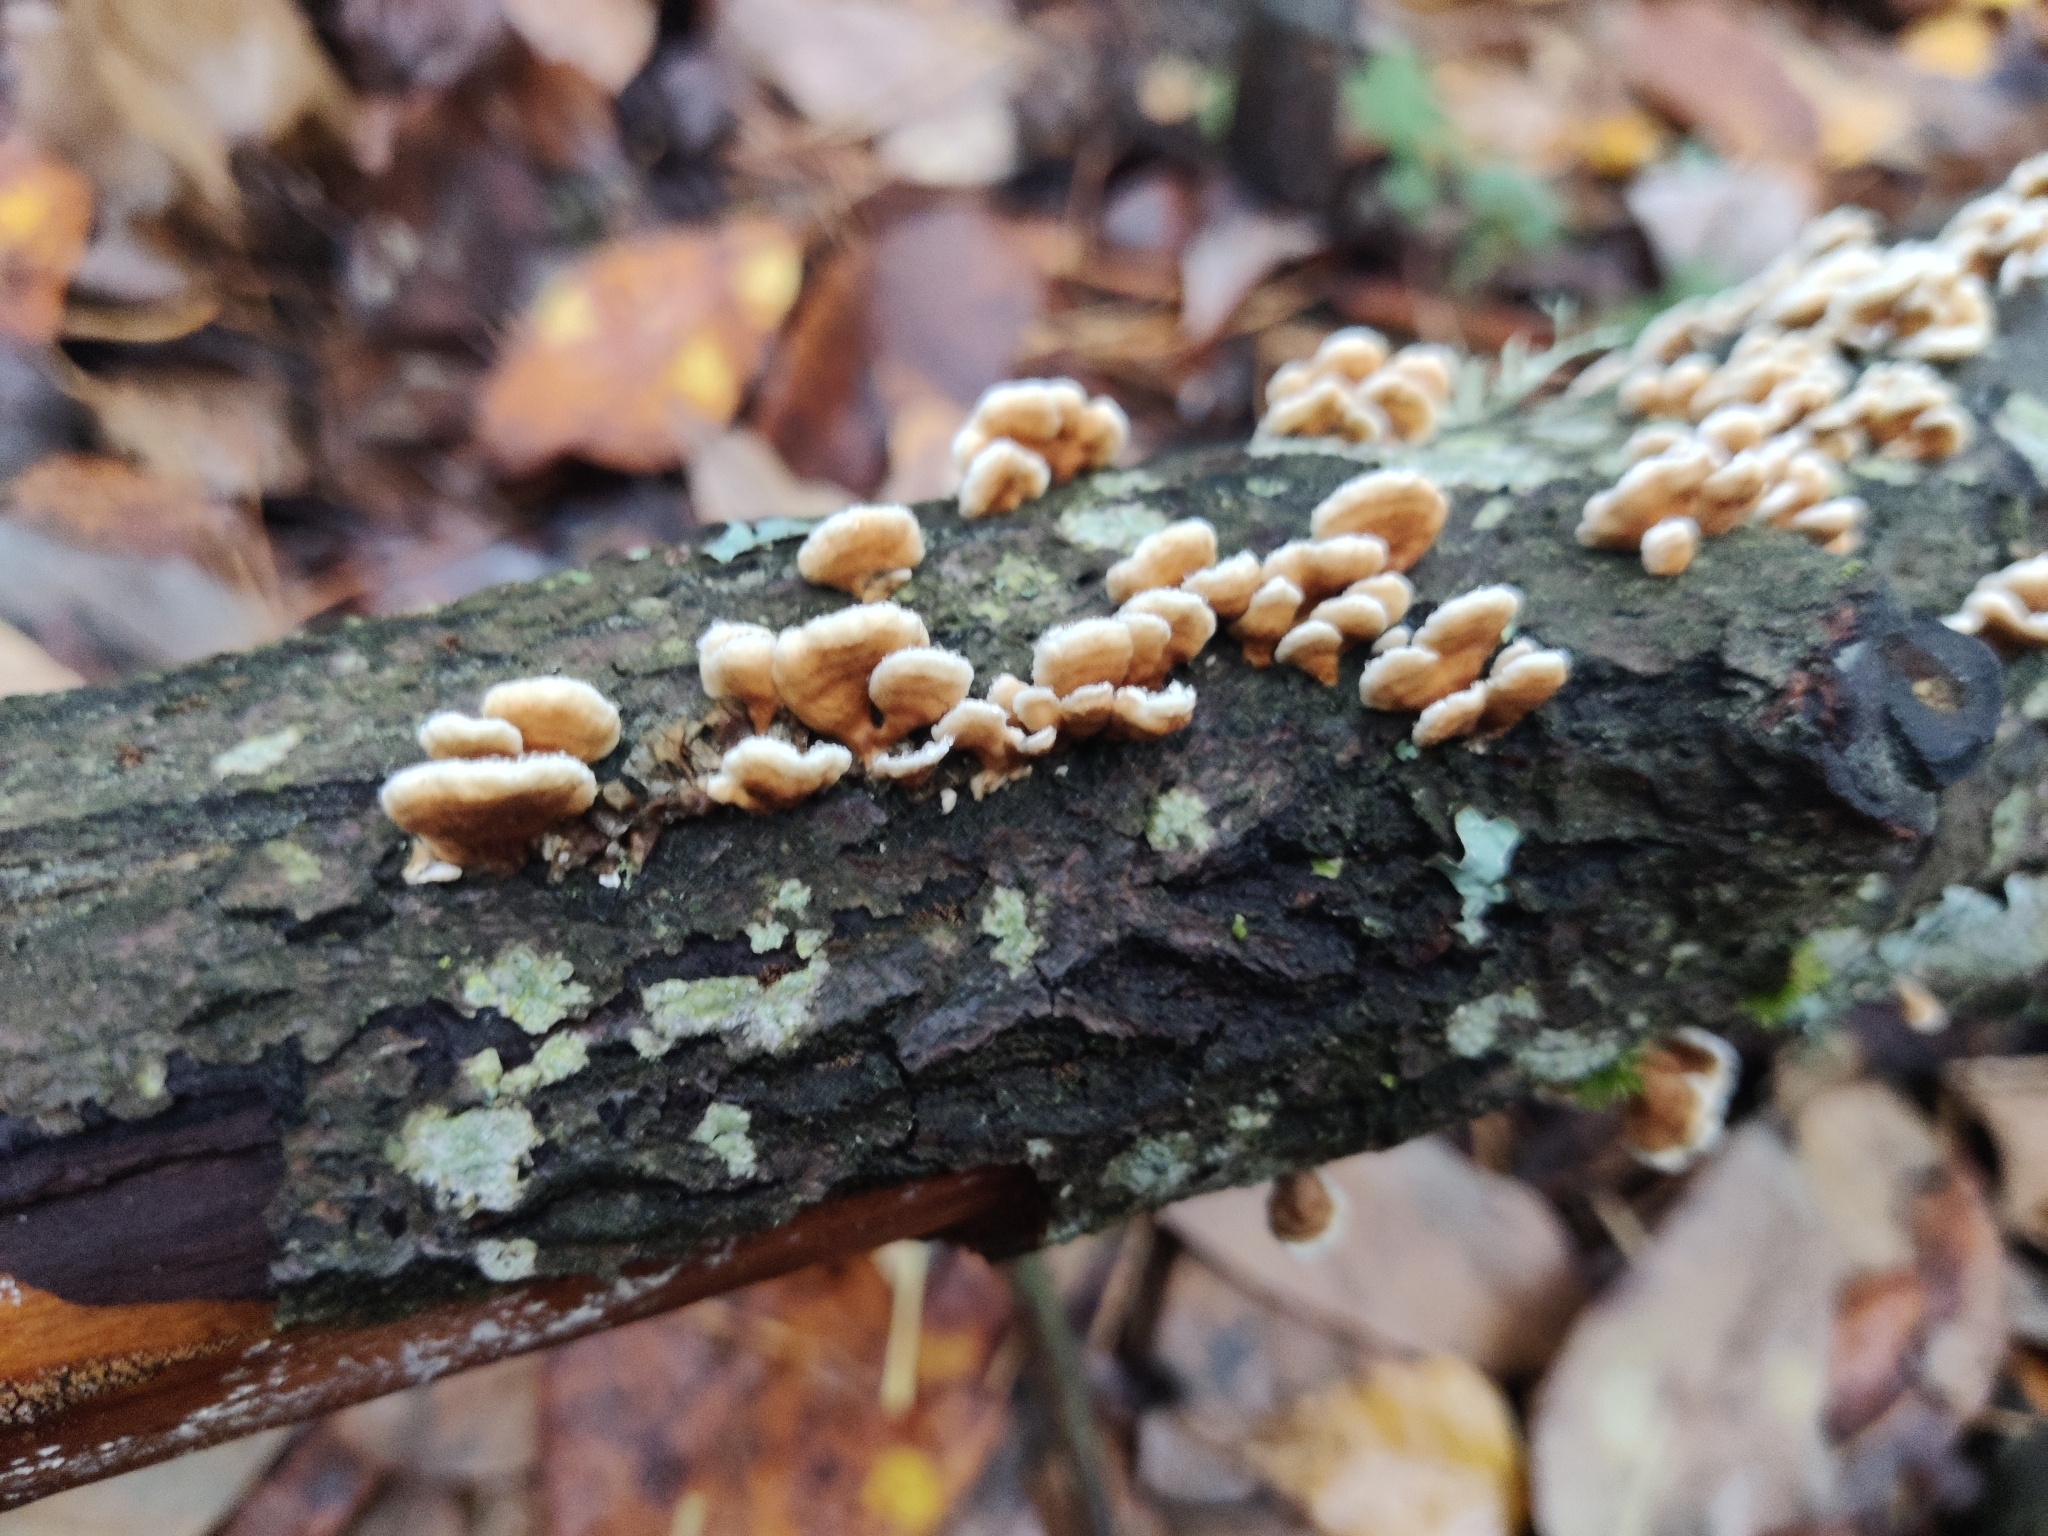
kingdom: Fungi
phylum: Basidiomycota
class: Agaricomycetes
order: Amylocorticiales
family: Amylocorticiaceae
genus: Plicaturopsis
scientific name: Plicaturopsis crispa
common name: Crimped gill
